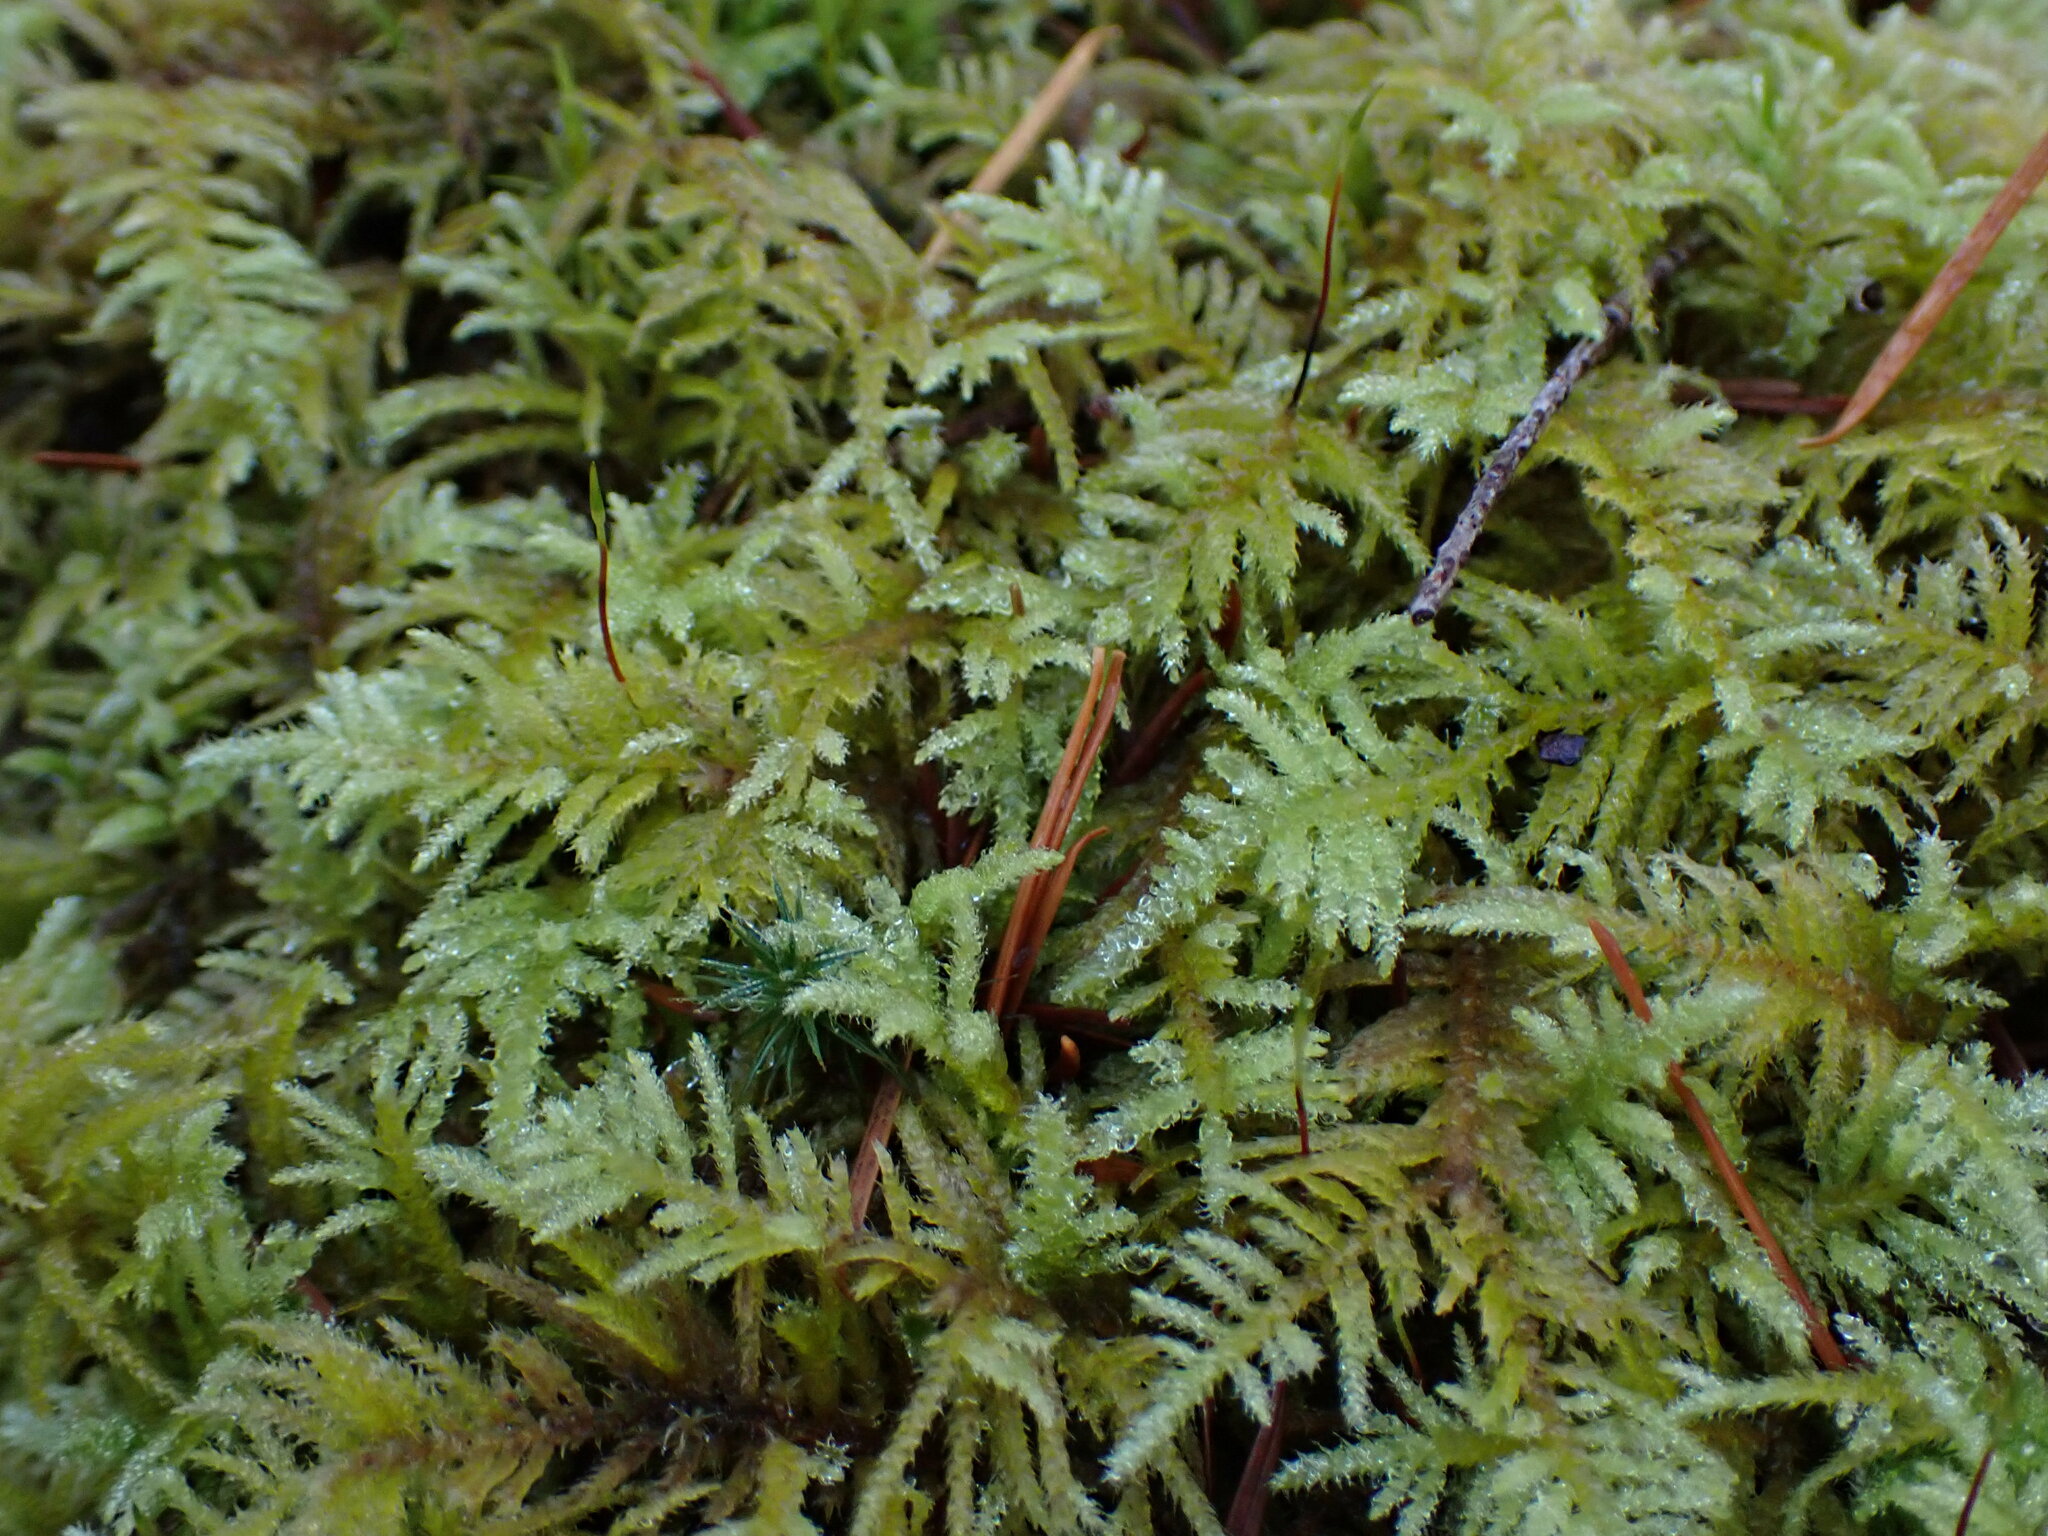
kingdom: Plantae
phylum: Bryophyta
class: Bryopsida
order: Hypnales
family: Brachytheciaceae
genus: Kindbergia
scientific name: Kindbergia oregana
